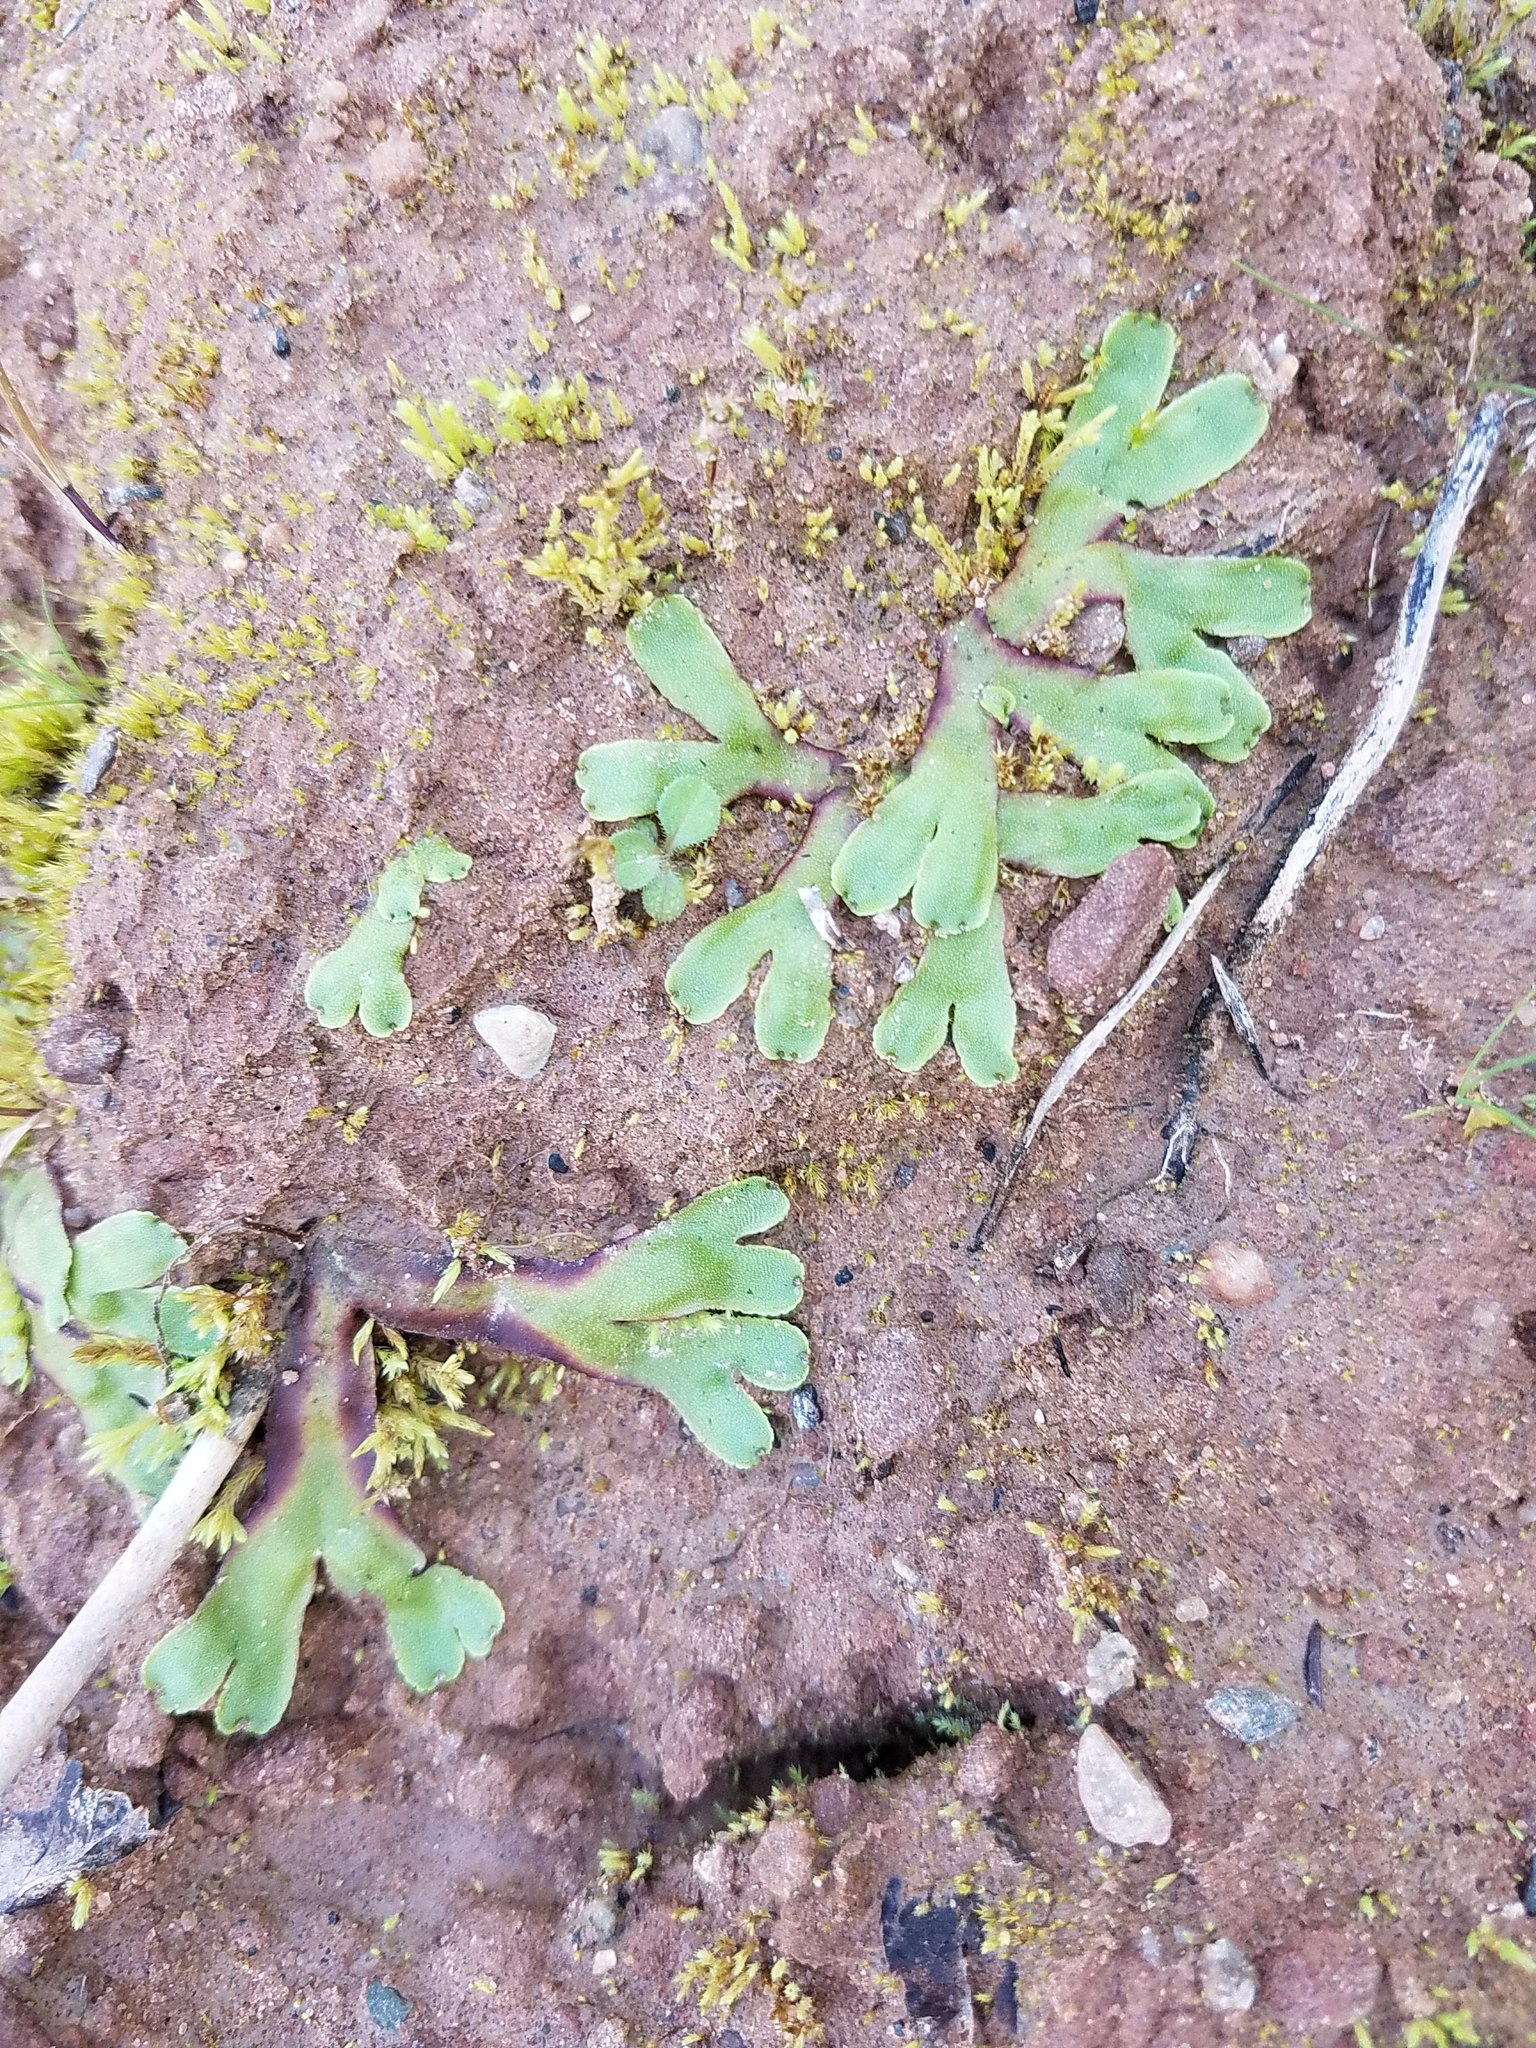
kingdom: Plantae
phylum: Marchantiophyta
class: Marchantiopsida
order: Marchantiales
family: Marchantiaceae
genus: Marchantia
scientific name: Marchantia quadrata
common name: Narrow mushroom-headed liverwort
